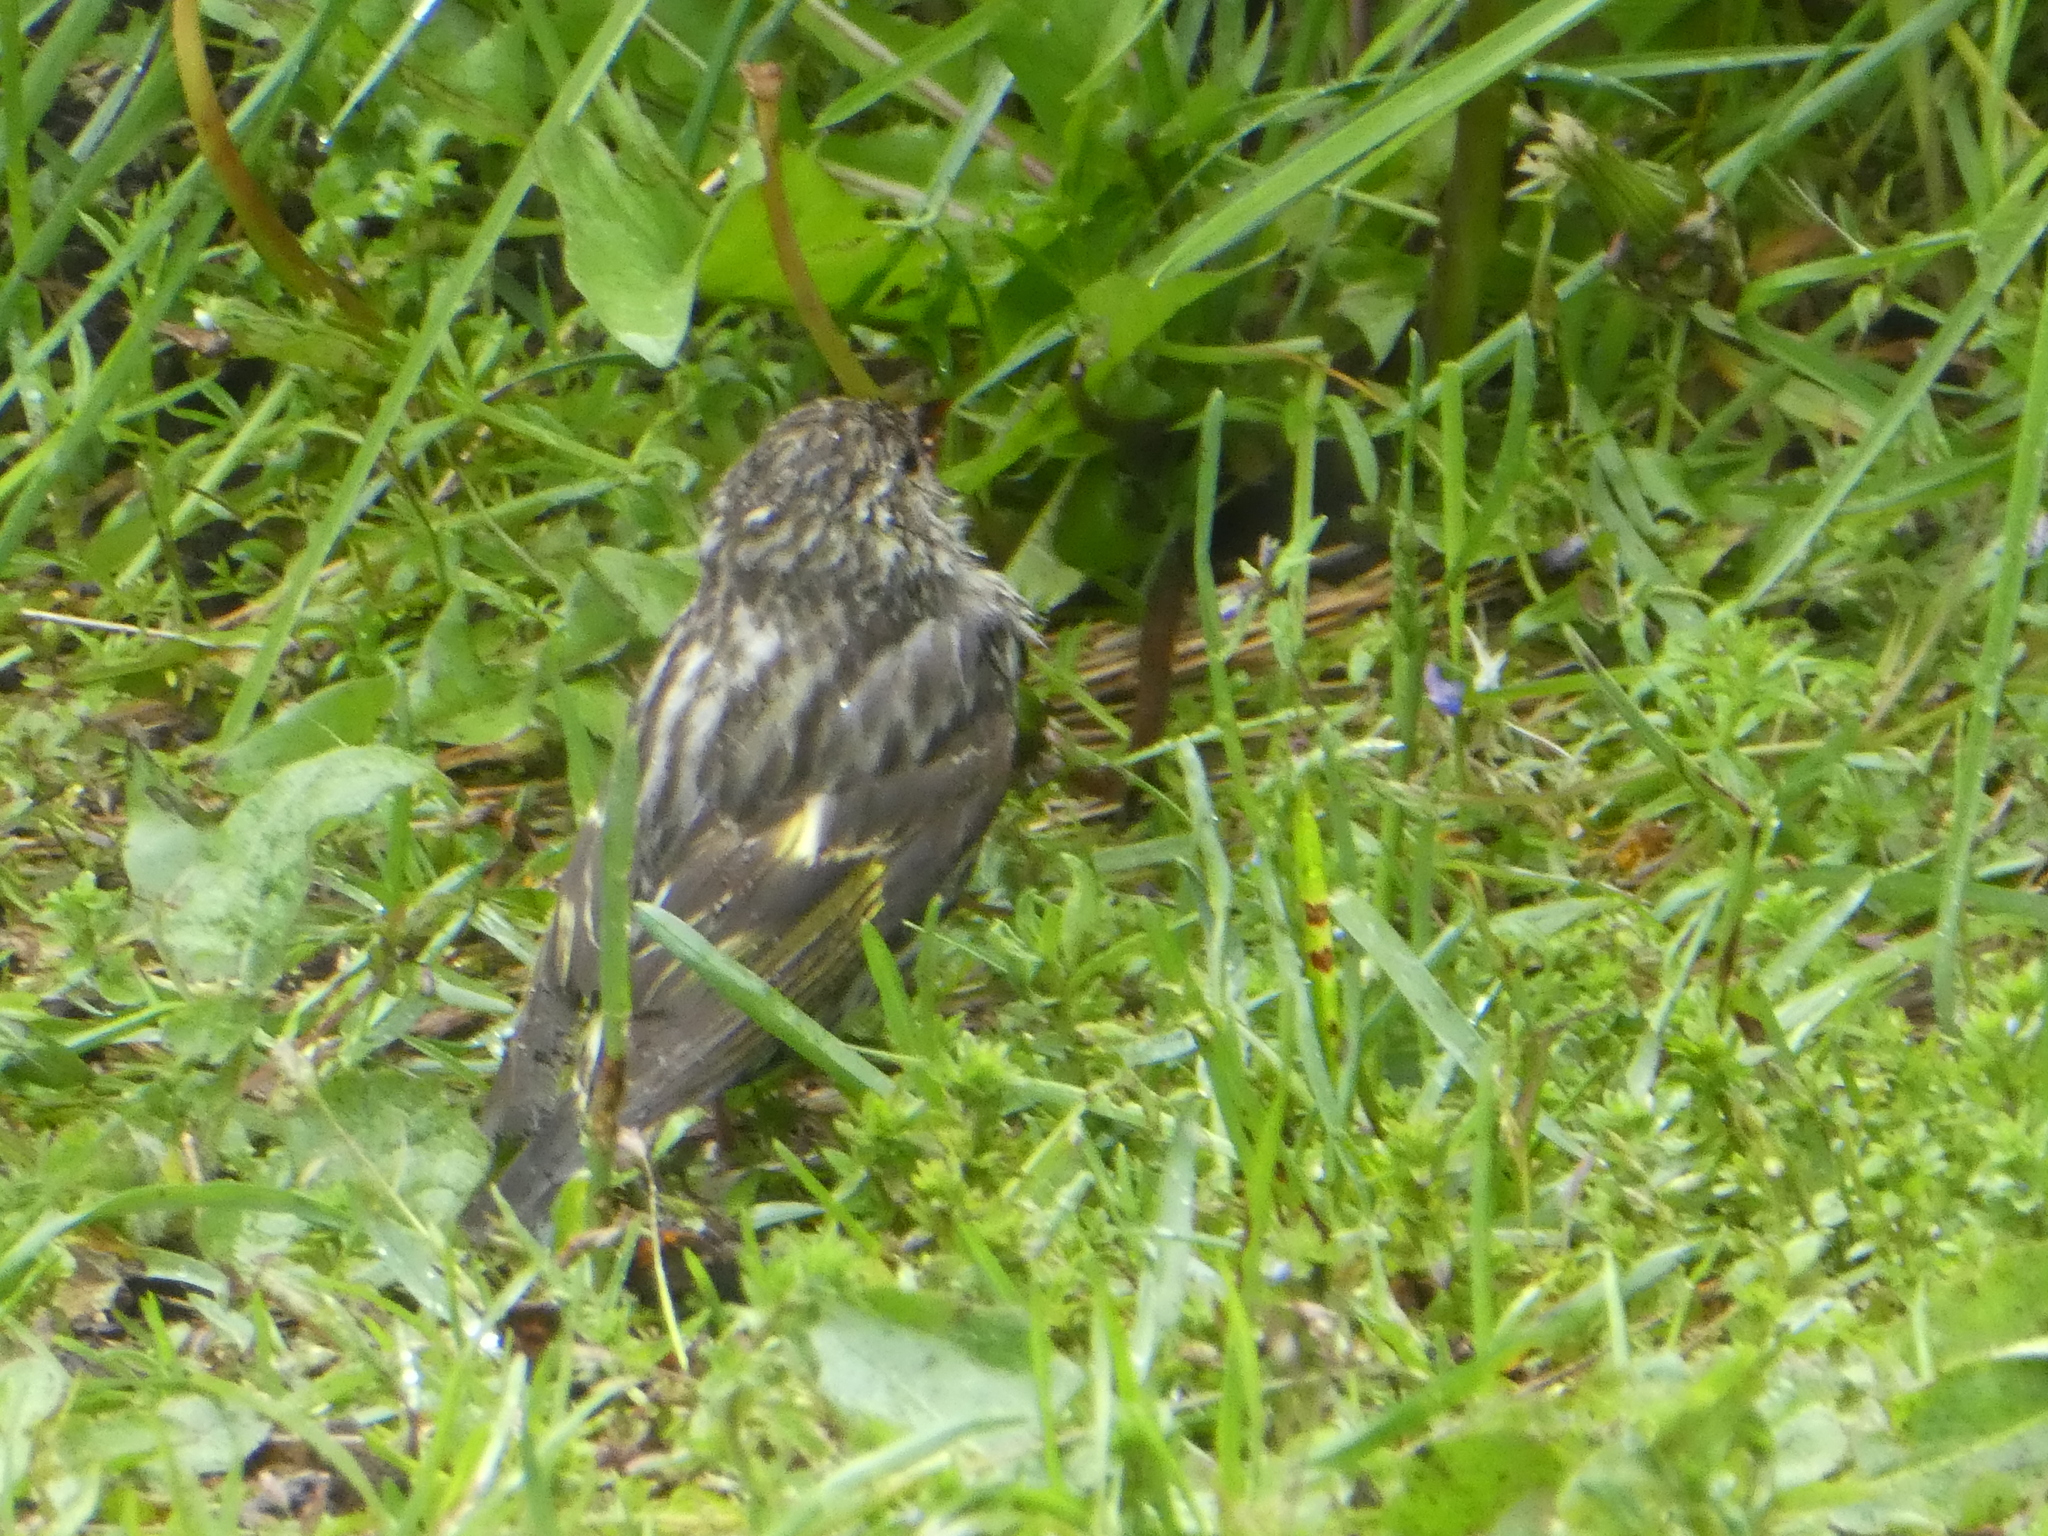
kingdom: Animalia
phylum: Chordata
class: Aves
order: Passeriformes
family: Fringillidae
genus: Spinus
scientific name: Spinus pinus
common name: Pine siskin
